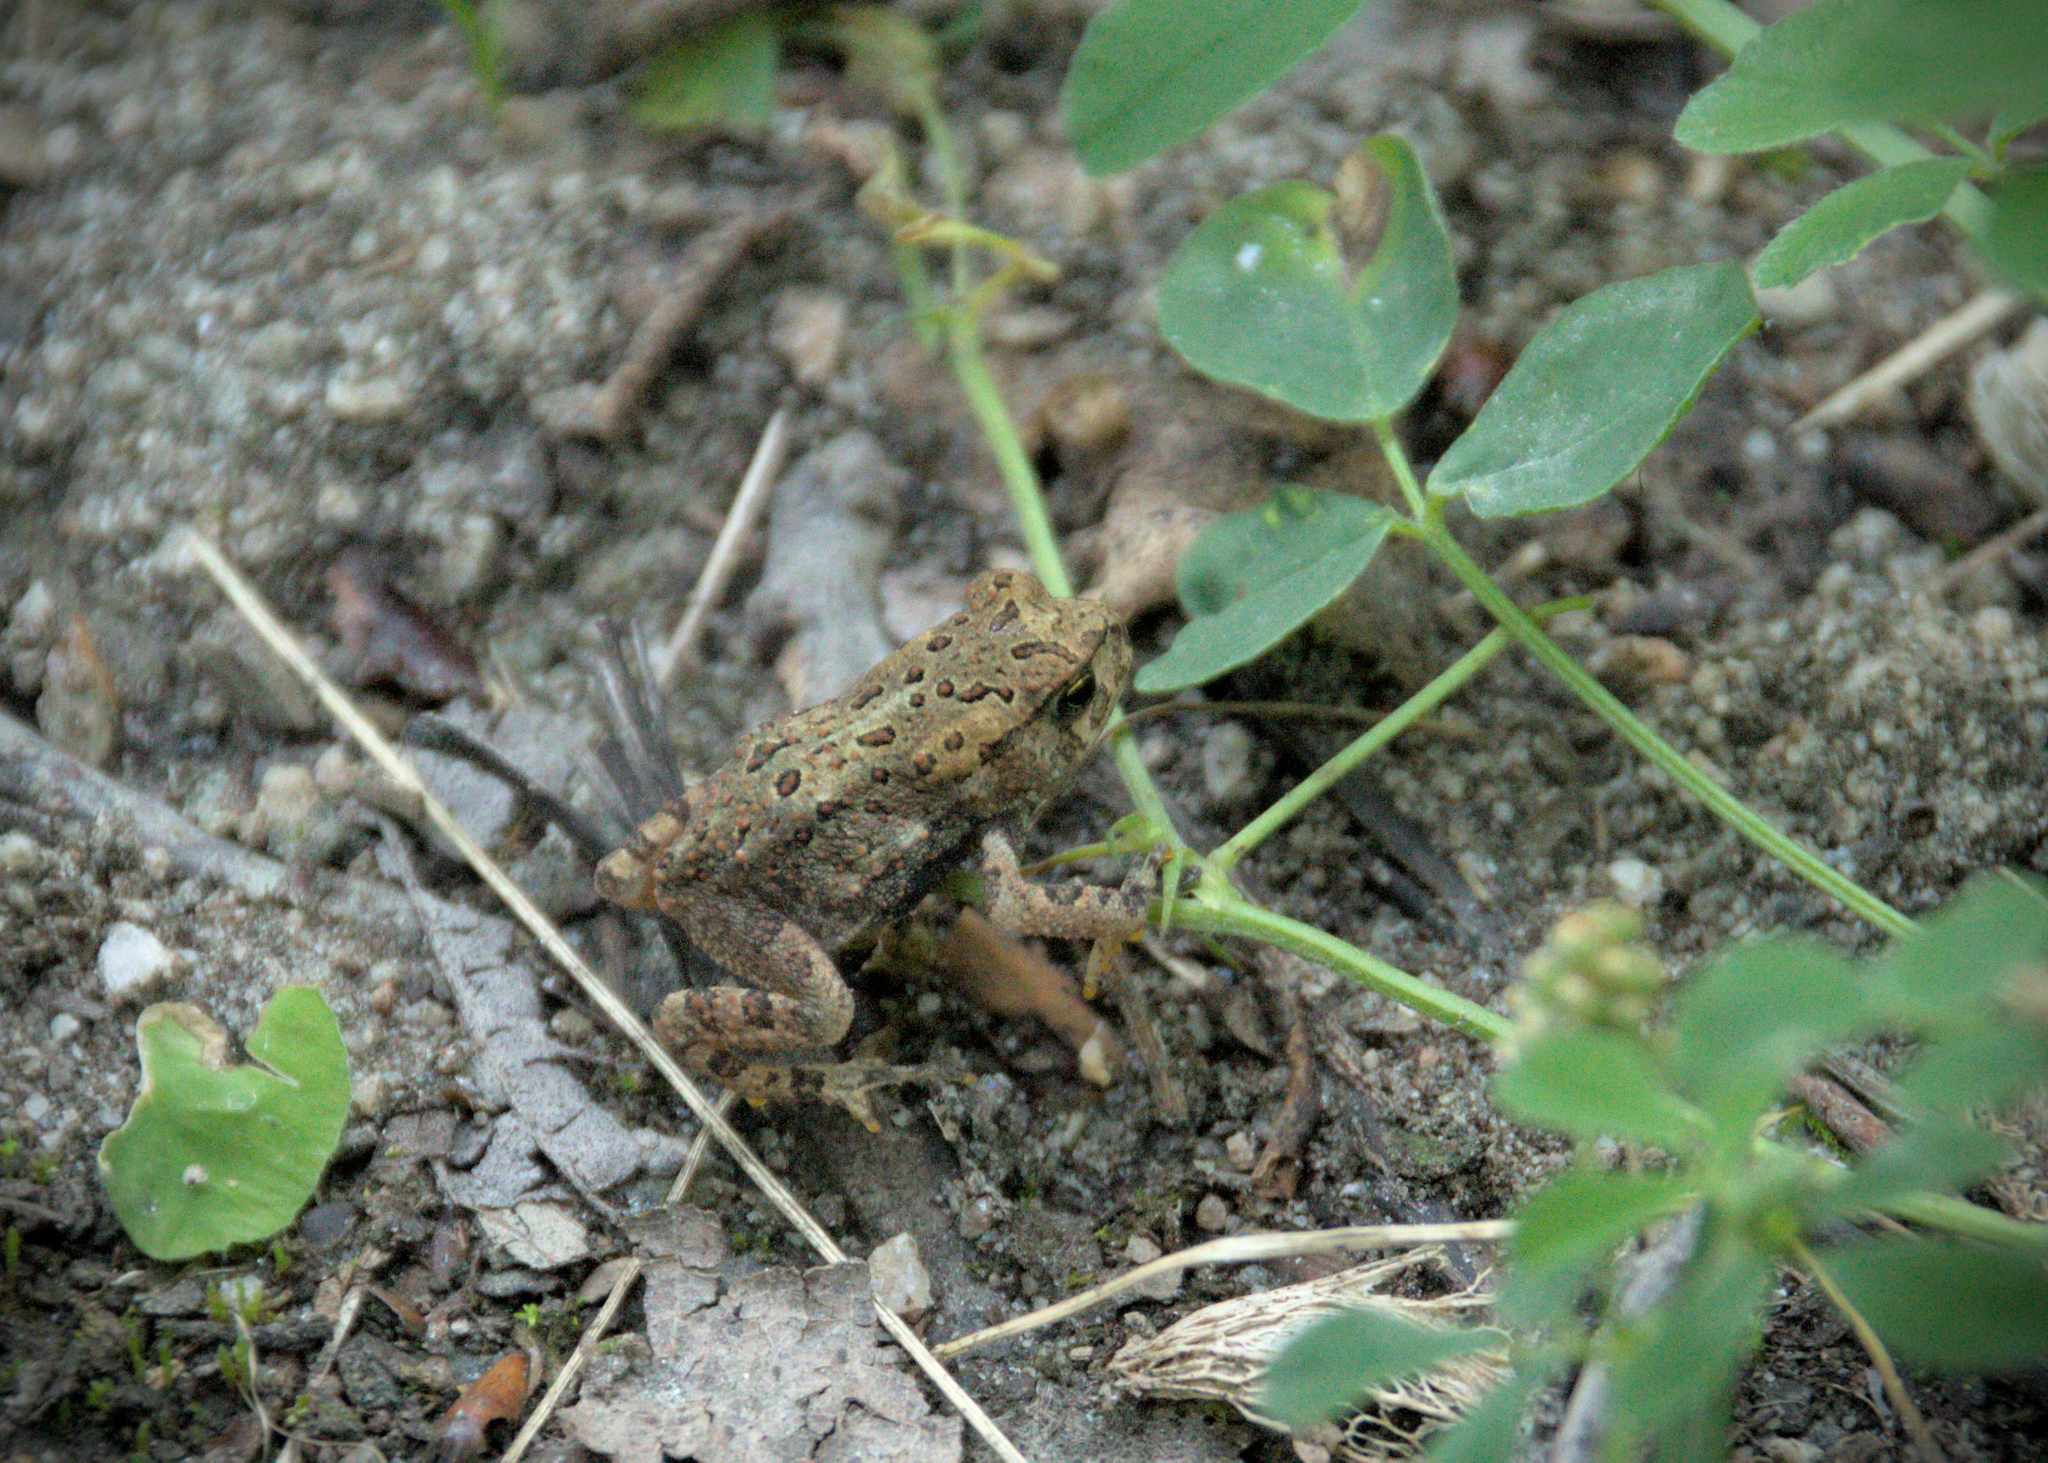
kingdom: Animalia
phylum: Chordata
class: Amphibia
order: Anura
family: Bufonidae
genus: Anaxyrus
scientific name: Anaxyrus americanus
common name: American toad
